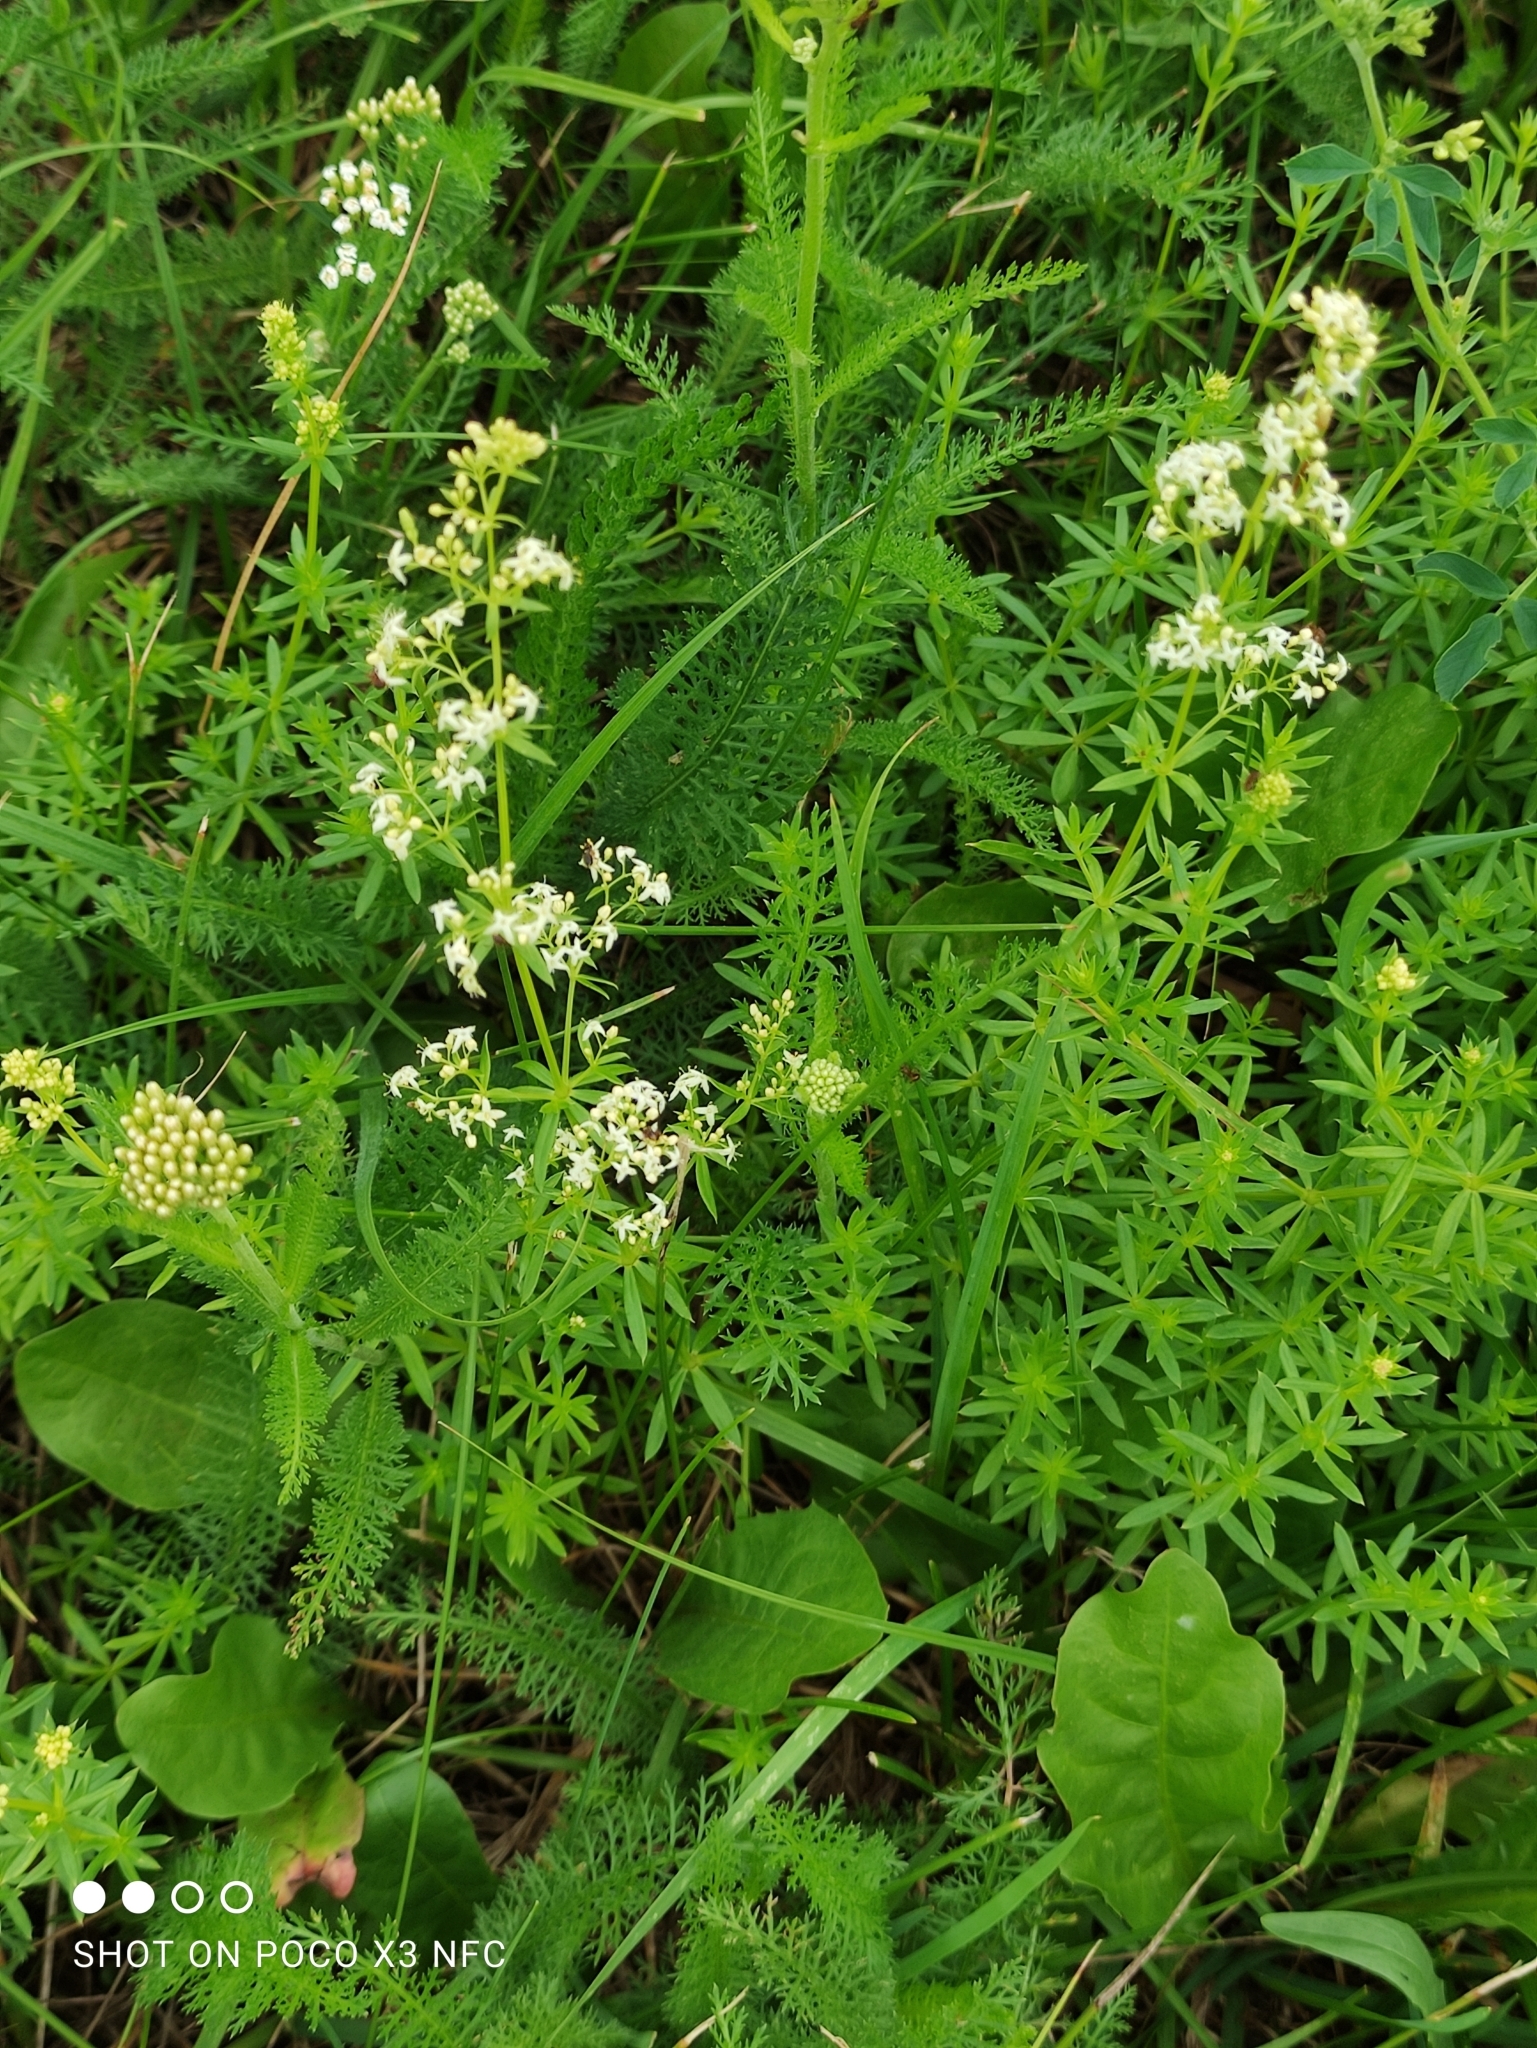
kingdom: Plantae
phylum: Tracheophyta
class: Magnoliopsida
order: Gentianales
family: Rubiaceae
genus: Galium
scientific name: Galium mollugo
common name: Hedge bedstraw
